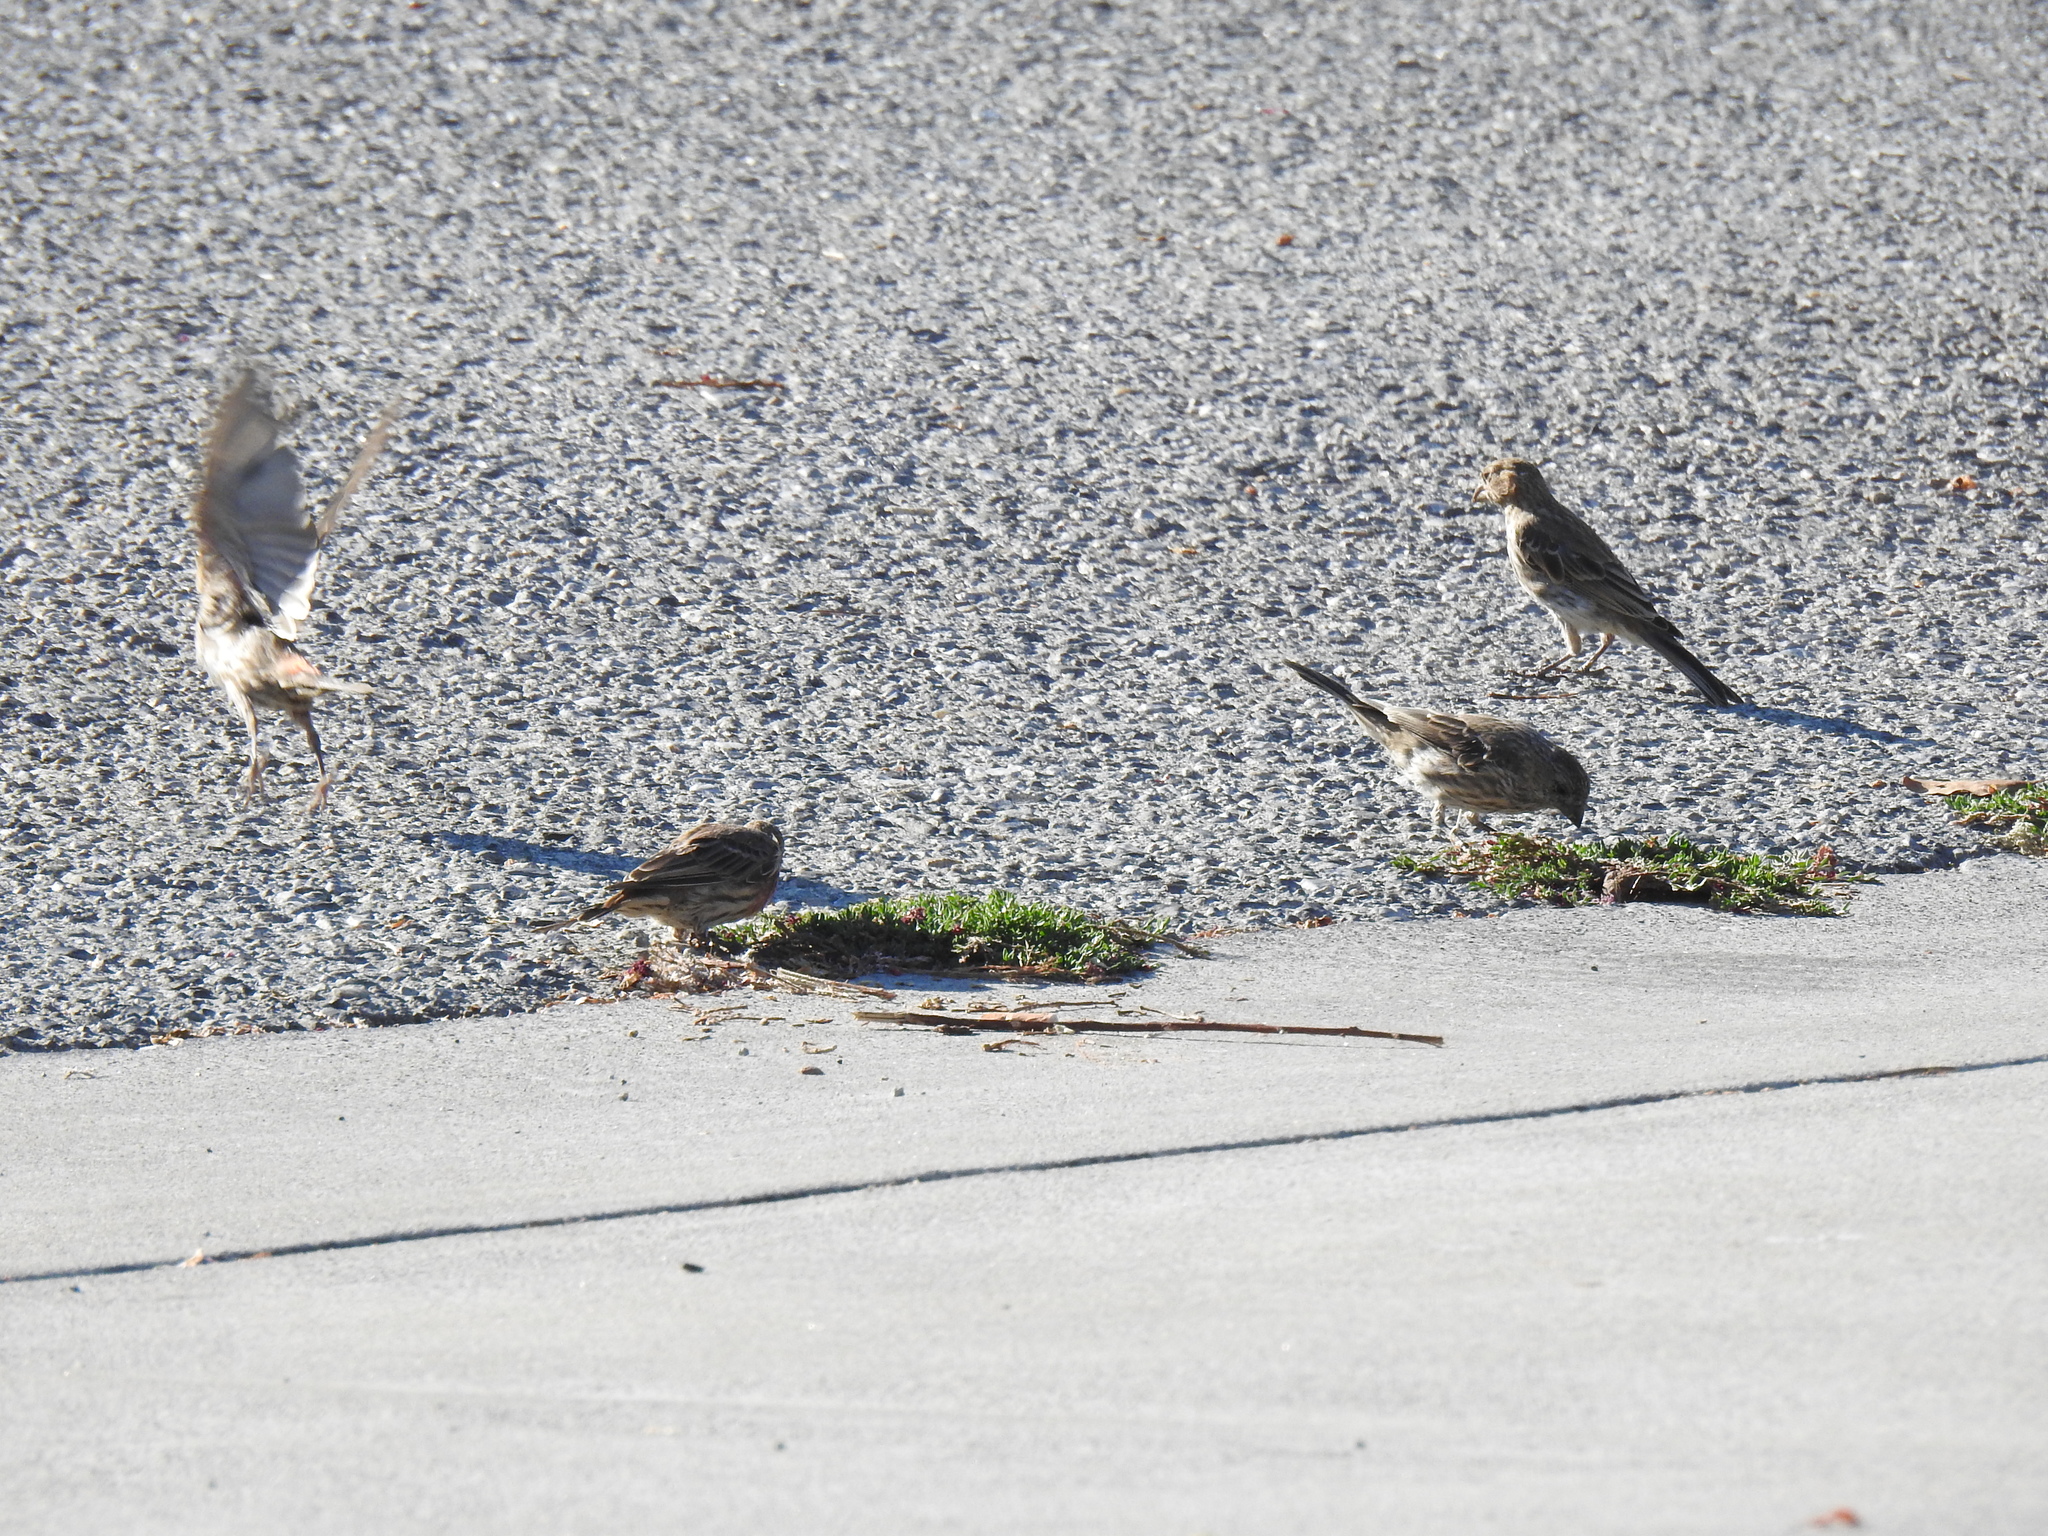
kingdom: Animalia
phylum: Chordata
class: Aves
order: Passeriformes
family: Fringillidae
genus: Haemorhous
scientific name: Haemorhous mexicanus
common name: House finch
